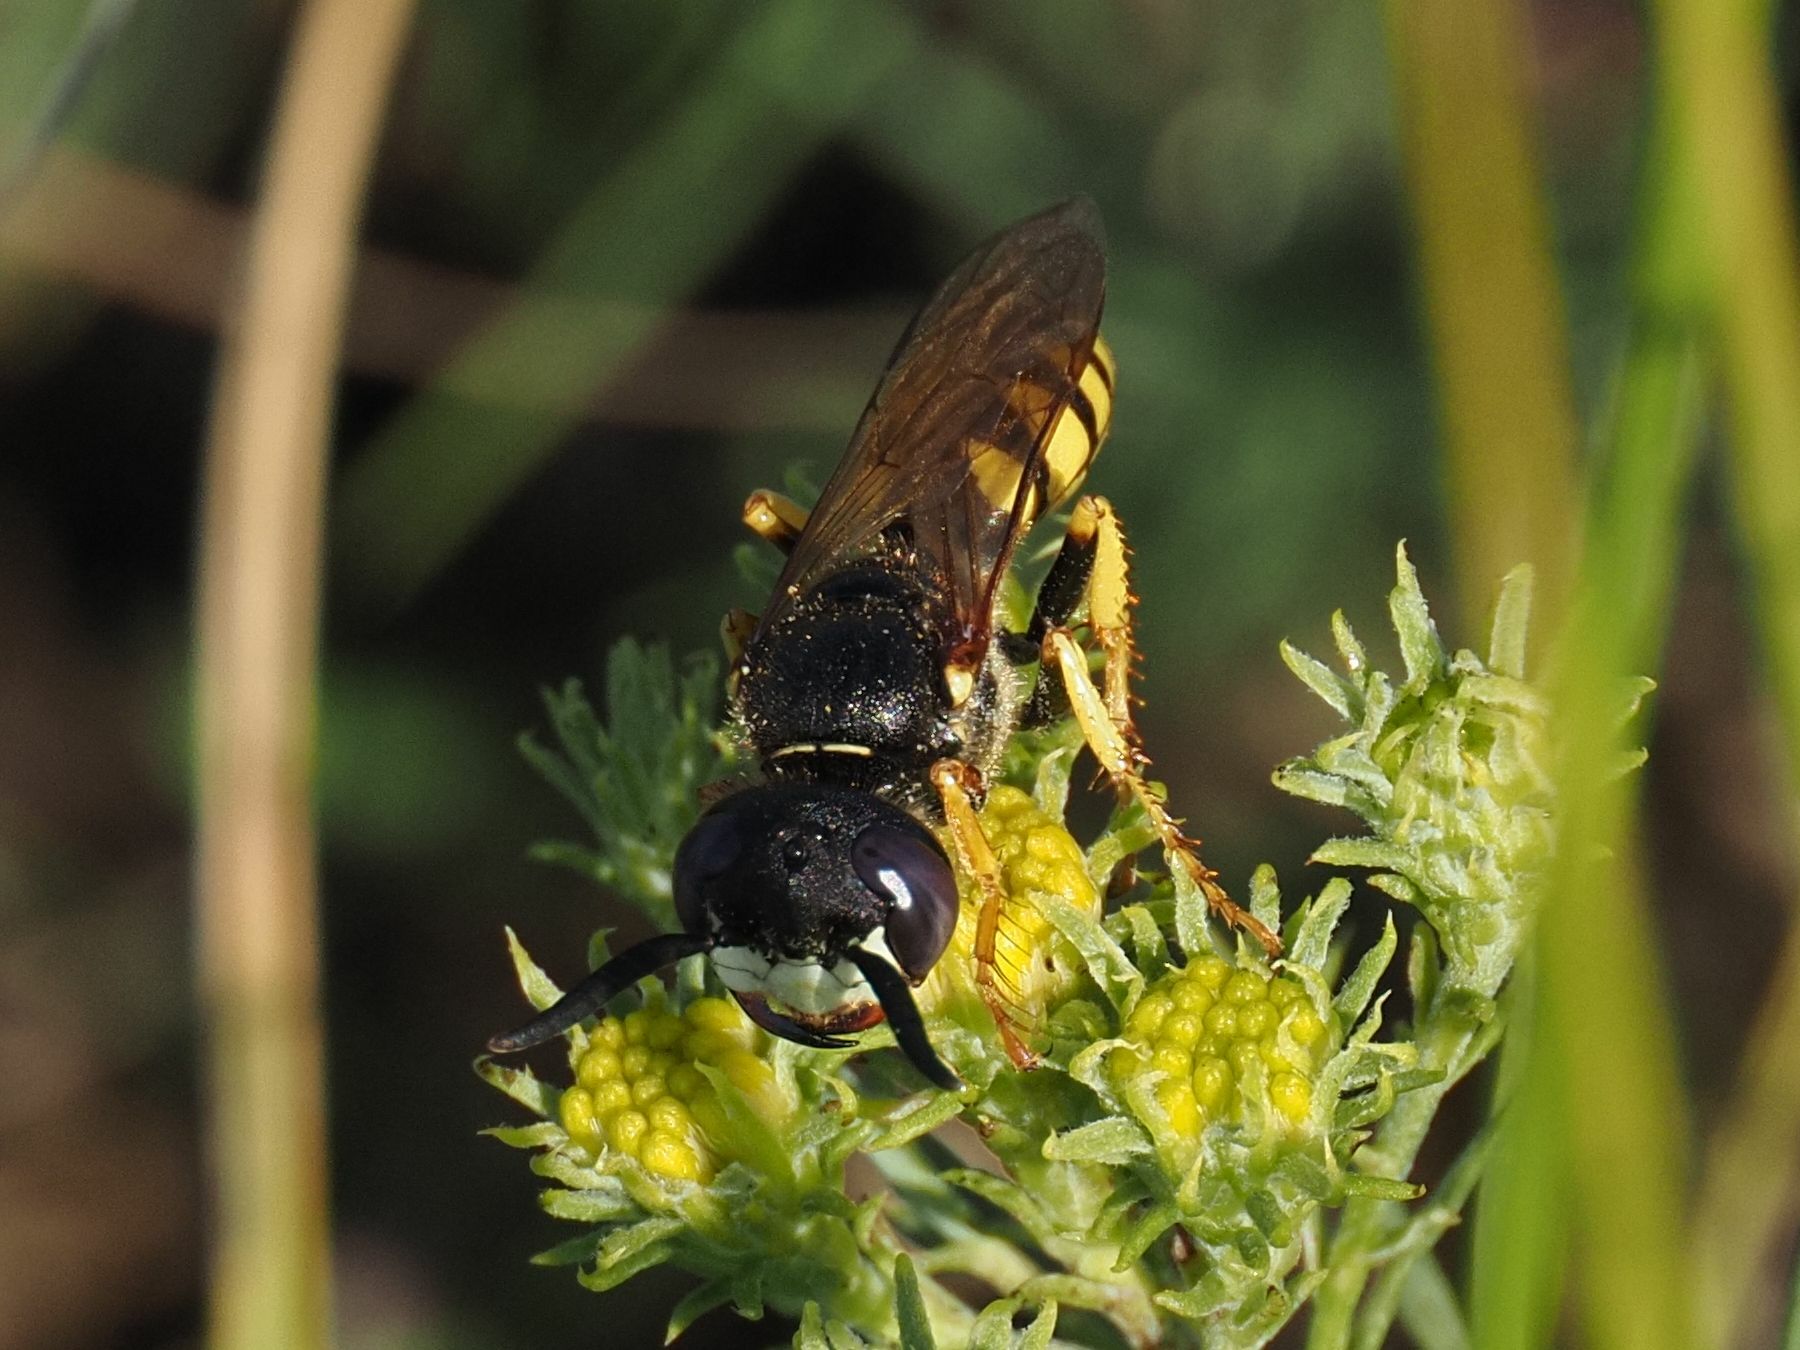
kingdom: Animalia
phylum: Arthropoda
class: Insecta
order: Hymenoptera
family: Crabronidae
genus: Philanthus
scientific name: Philanthus triangulum
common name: Bee wolf
